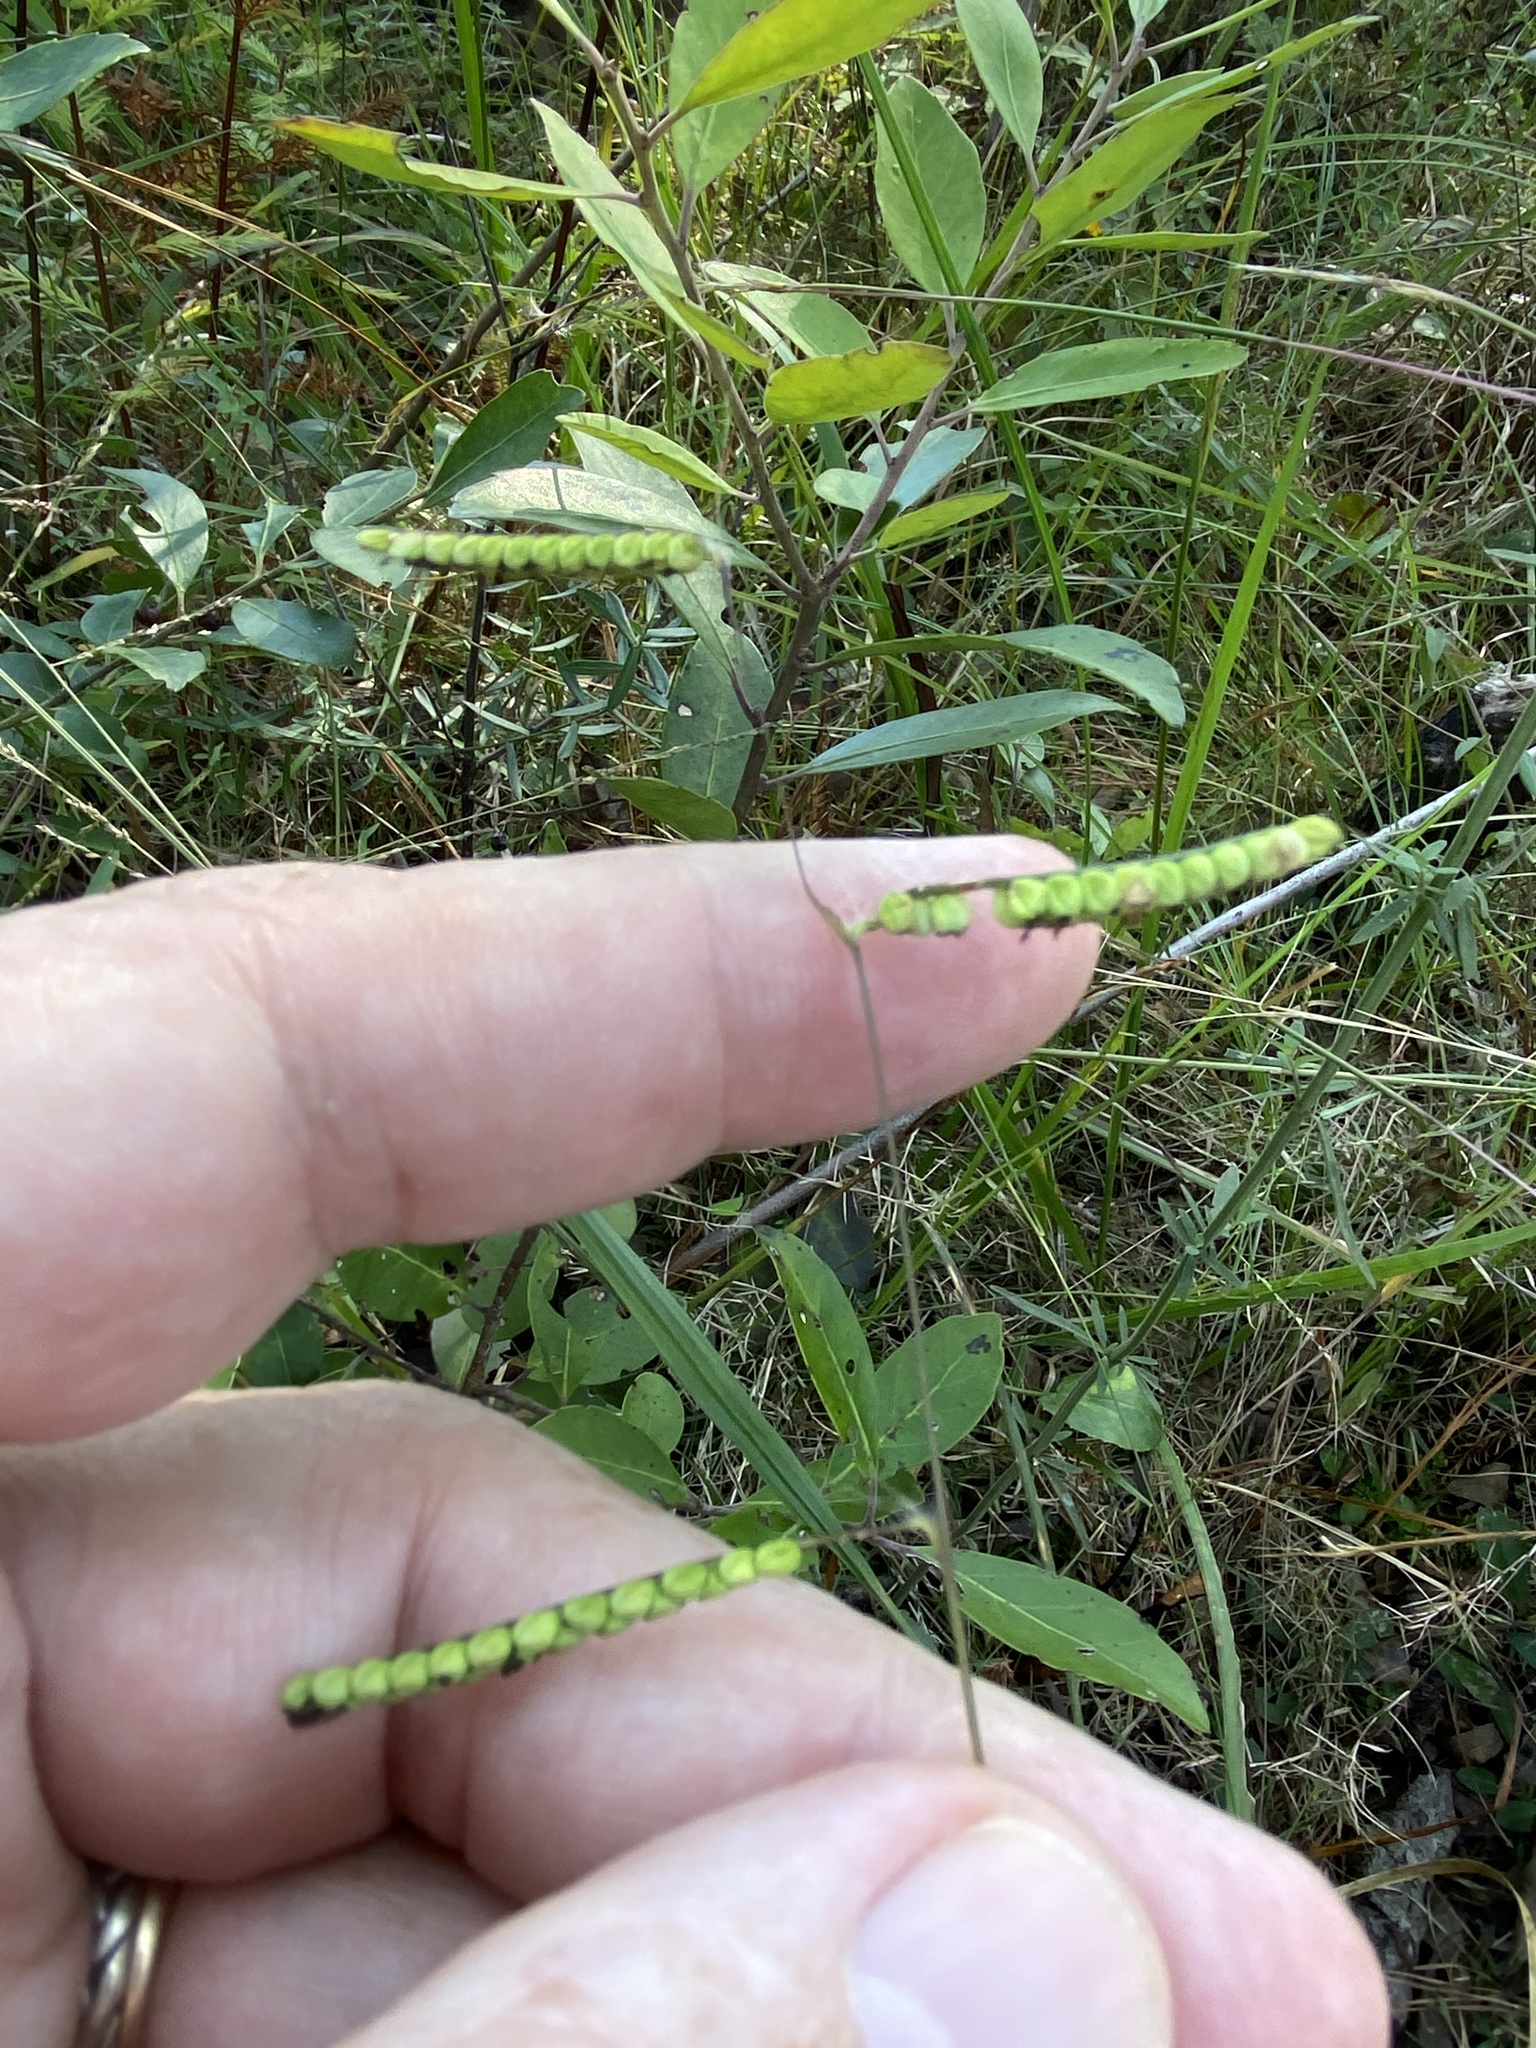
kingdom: Plantae
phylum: Tracheophyta
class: Liliopsida
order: Poales
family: Poaceae
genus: Paspalum
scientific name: Paspalum laeve
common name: Field paspalum
